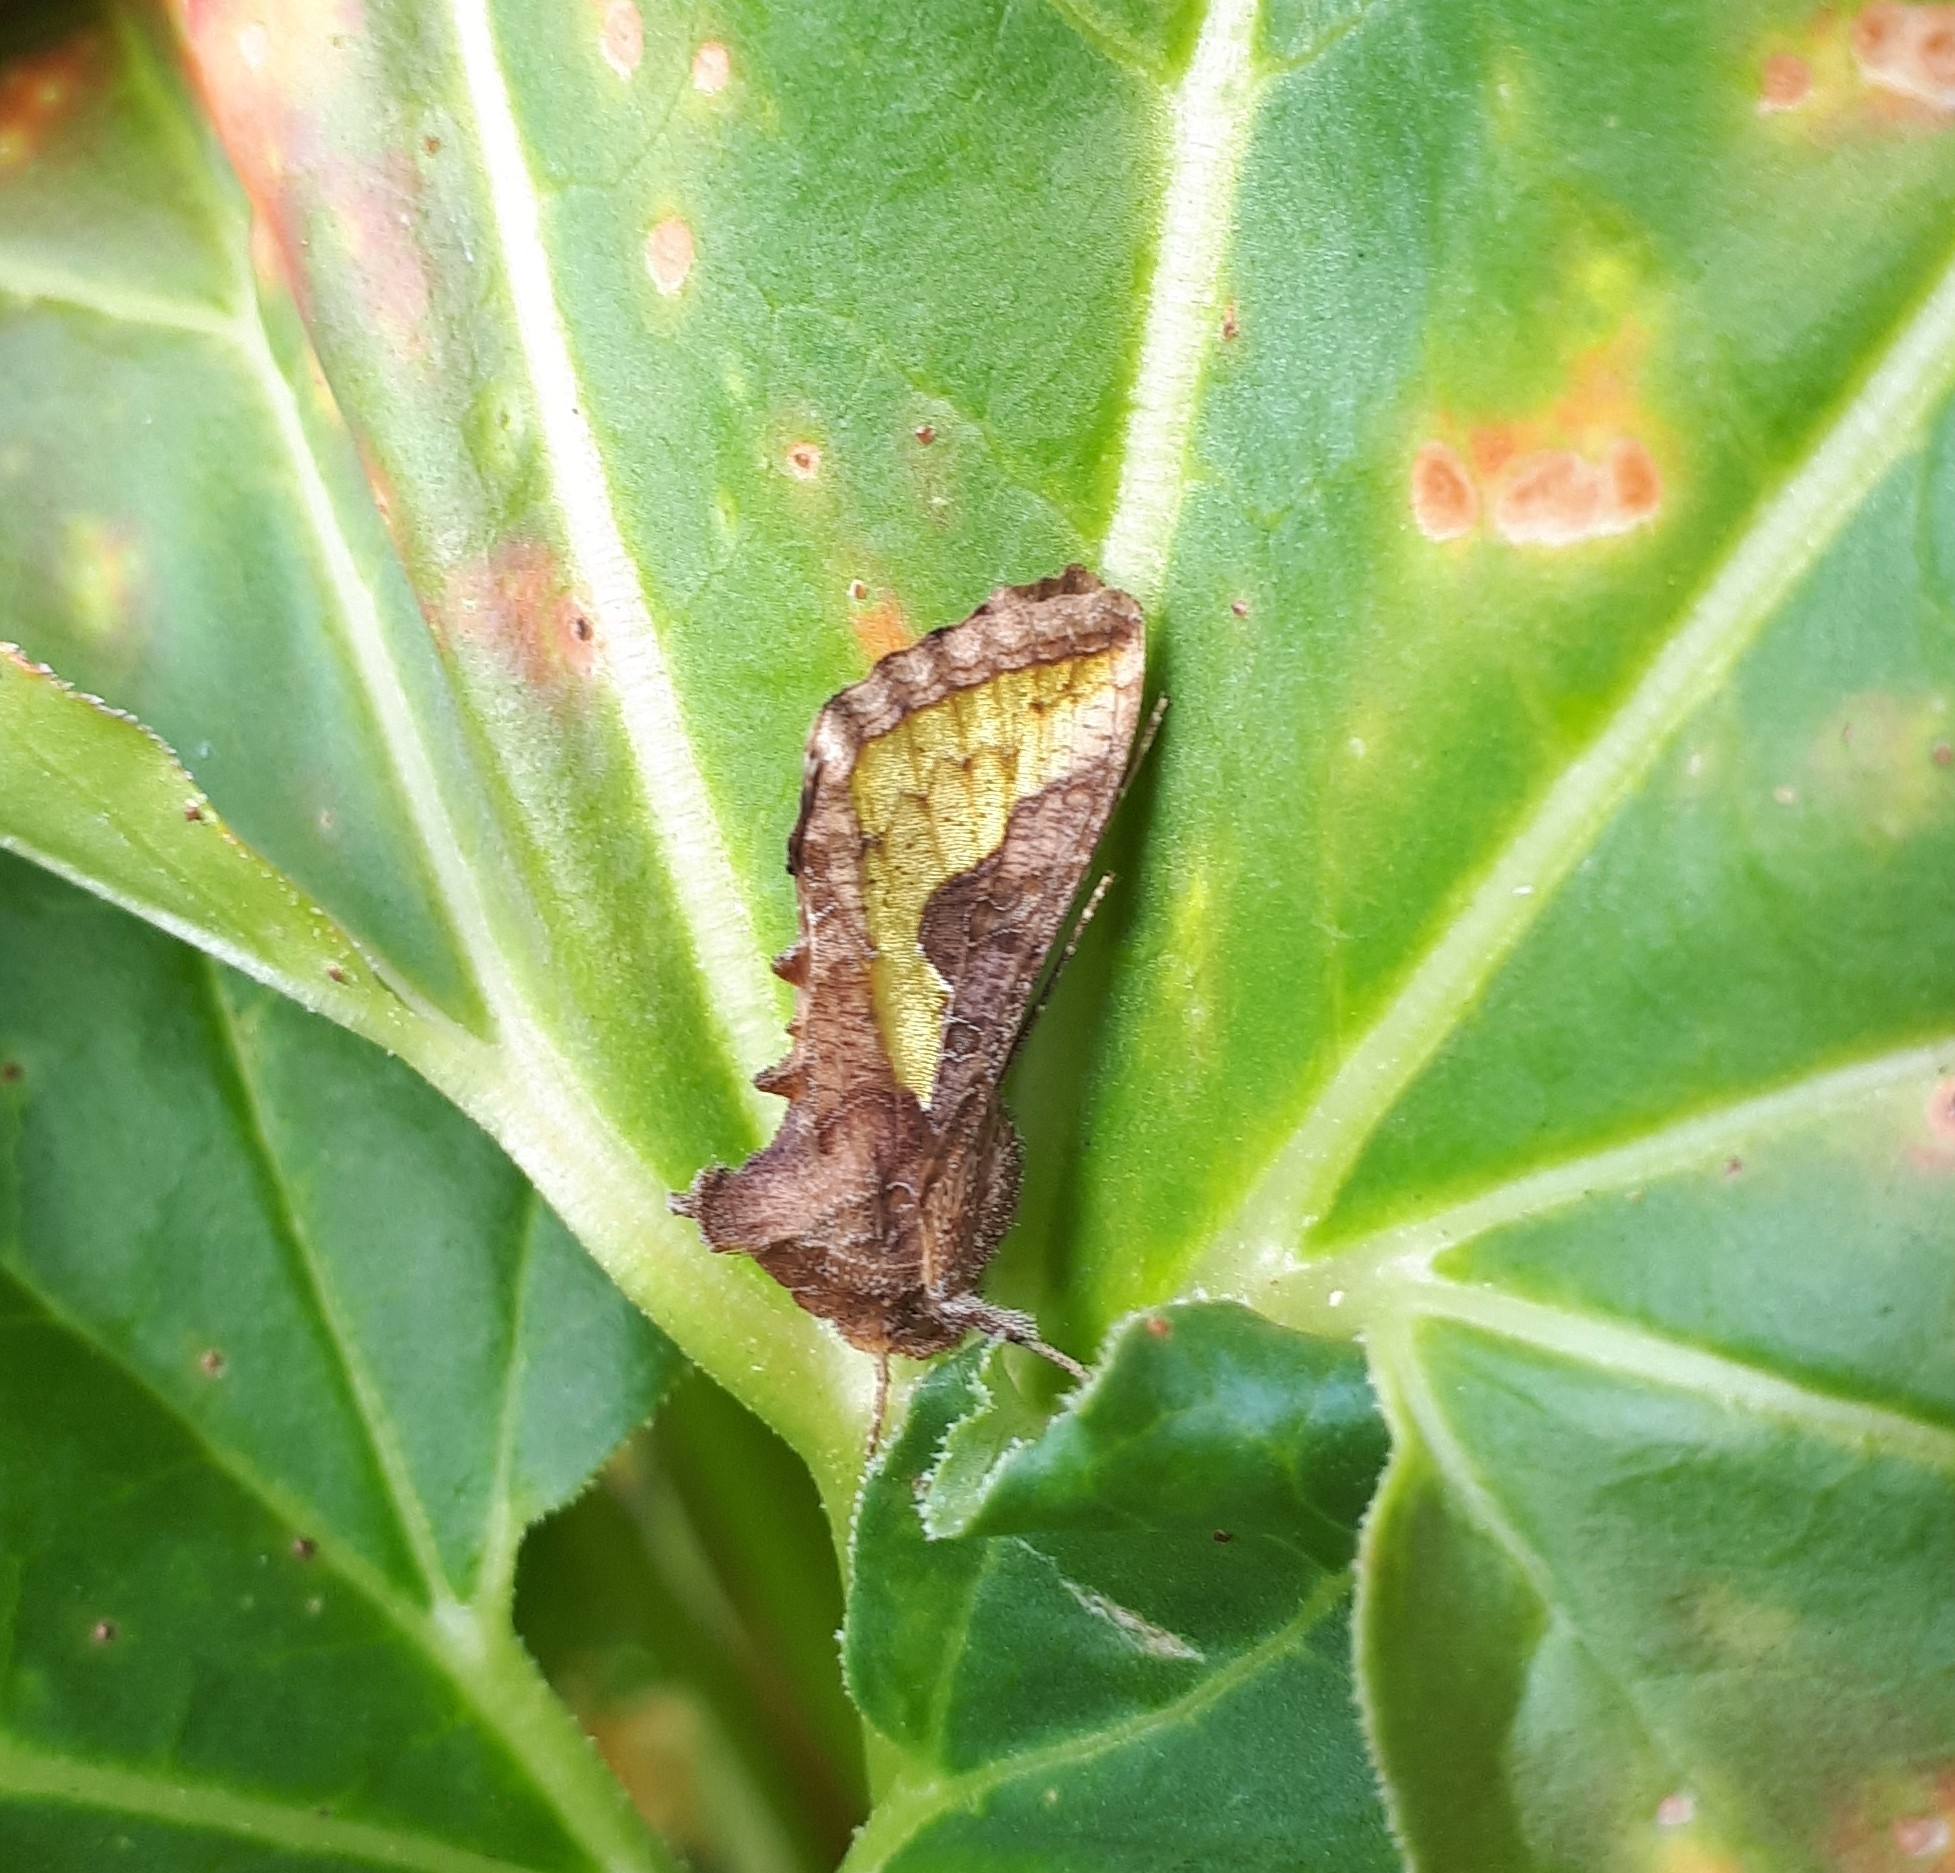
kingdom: Animalia
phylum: Arthropoda
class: Insecta
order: Lepidoptera
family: Noctuidae
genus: Thysanoplusia
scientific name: Thysanoplusia orichalcea
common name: Slender burnished brass, golden plusia
